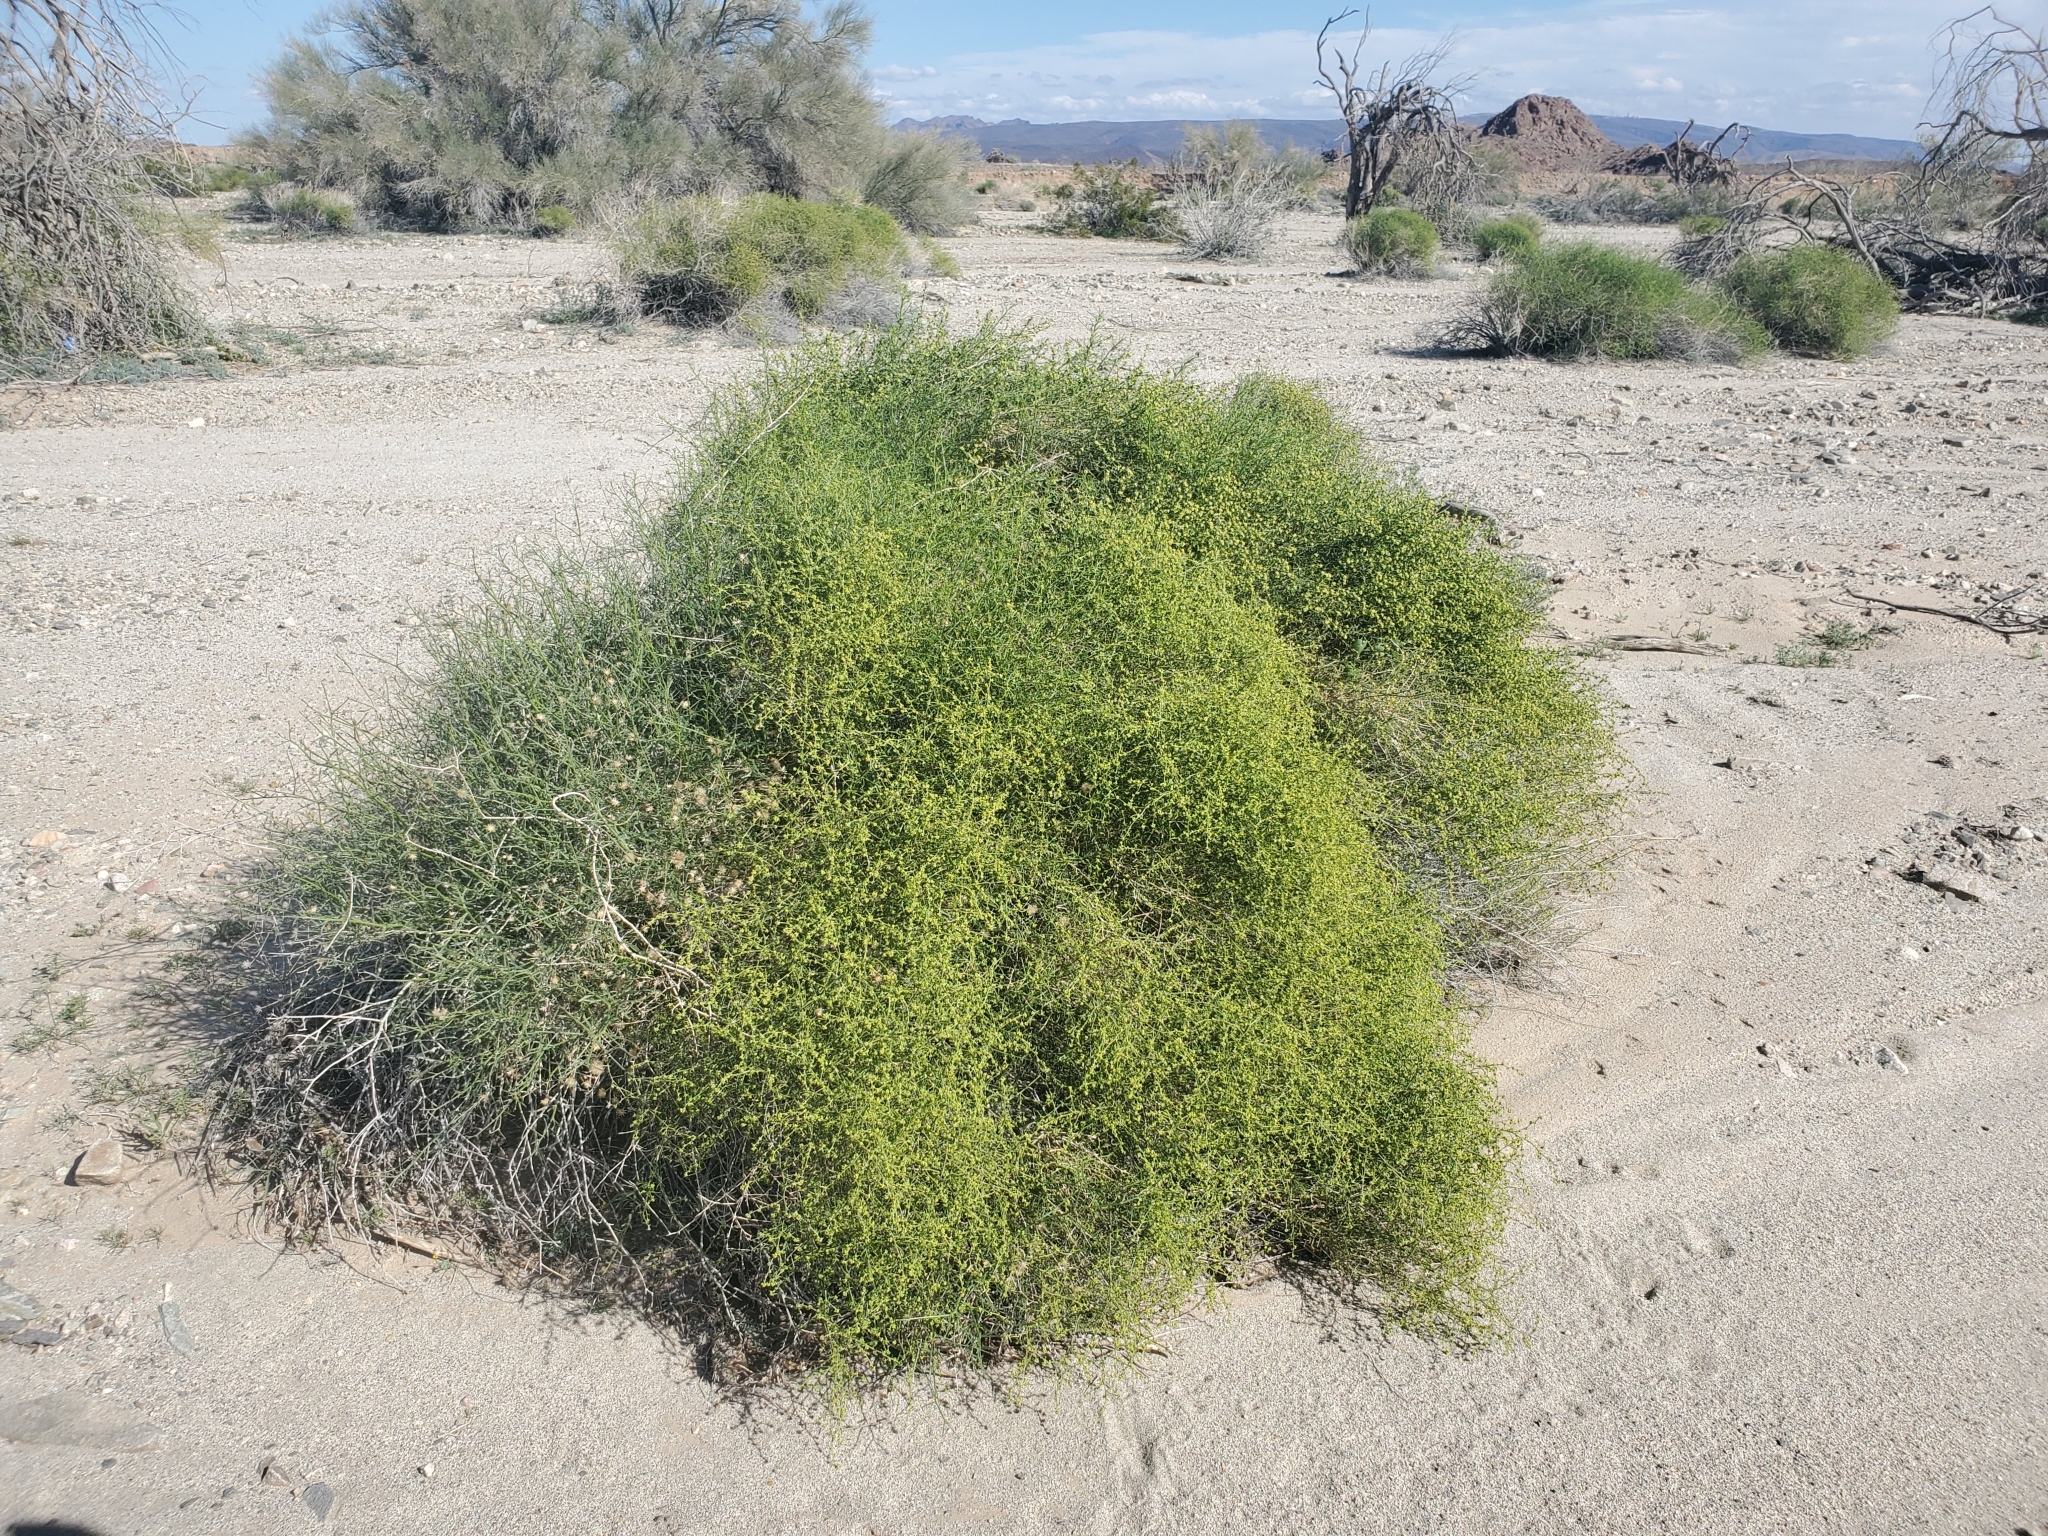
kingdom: Plantae
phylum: Tracheophyta
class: Magnoliopsida
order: Asterales
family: Asteraceae
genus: Ambrosia
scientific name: Ambrosia salsola
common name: Burrobrush
